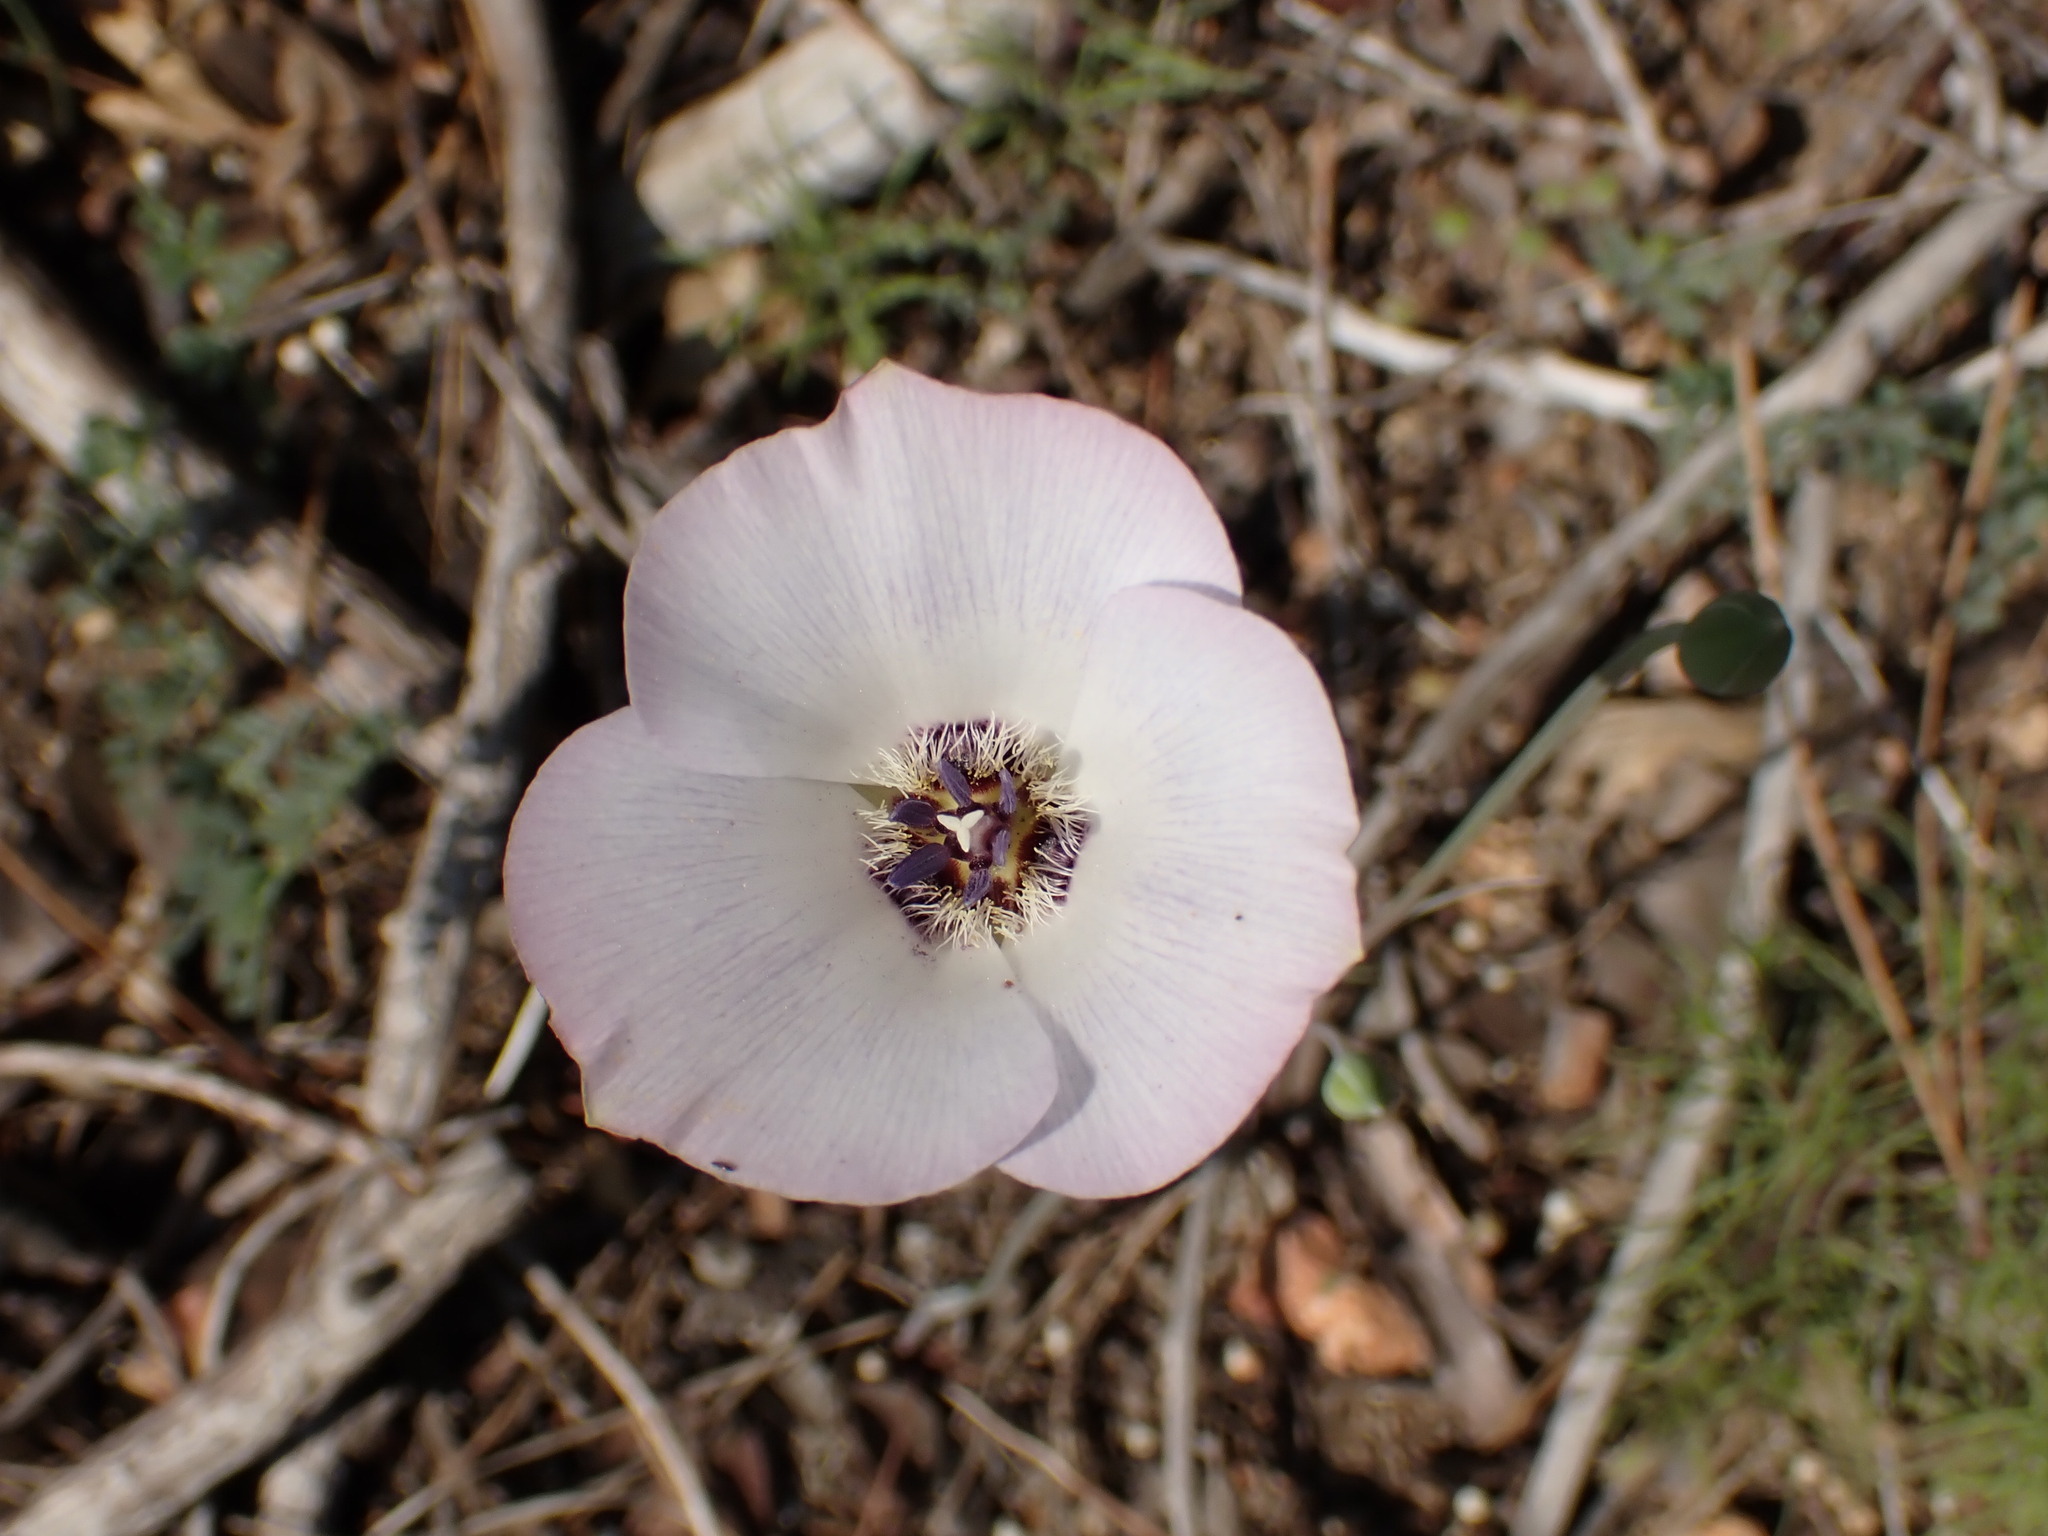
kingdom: Plantae
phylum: Tracheophyta
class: Liliopsida
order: Liliales
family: Liliaceae
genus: Calochortus
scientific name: Calochortus invenustus
